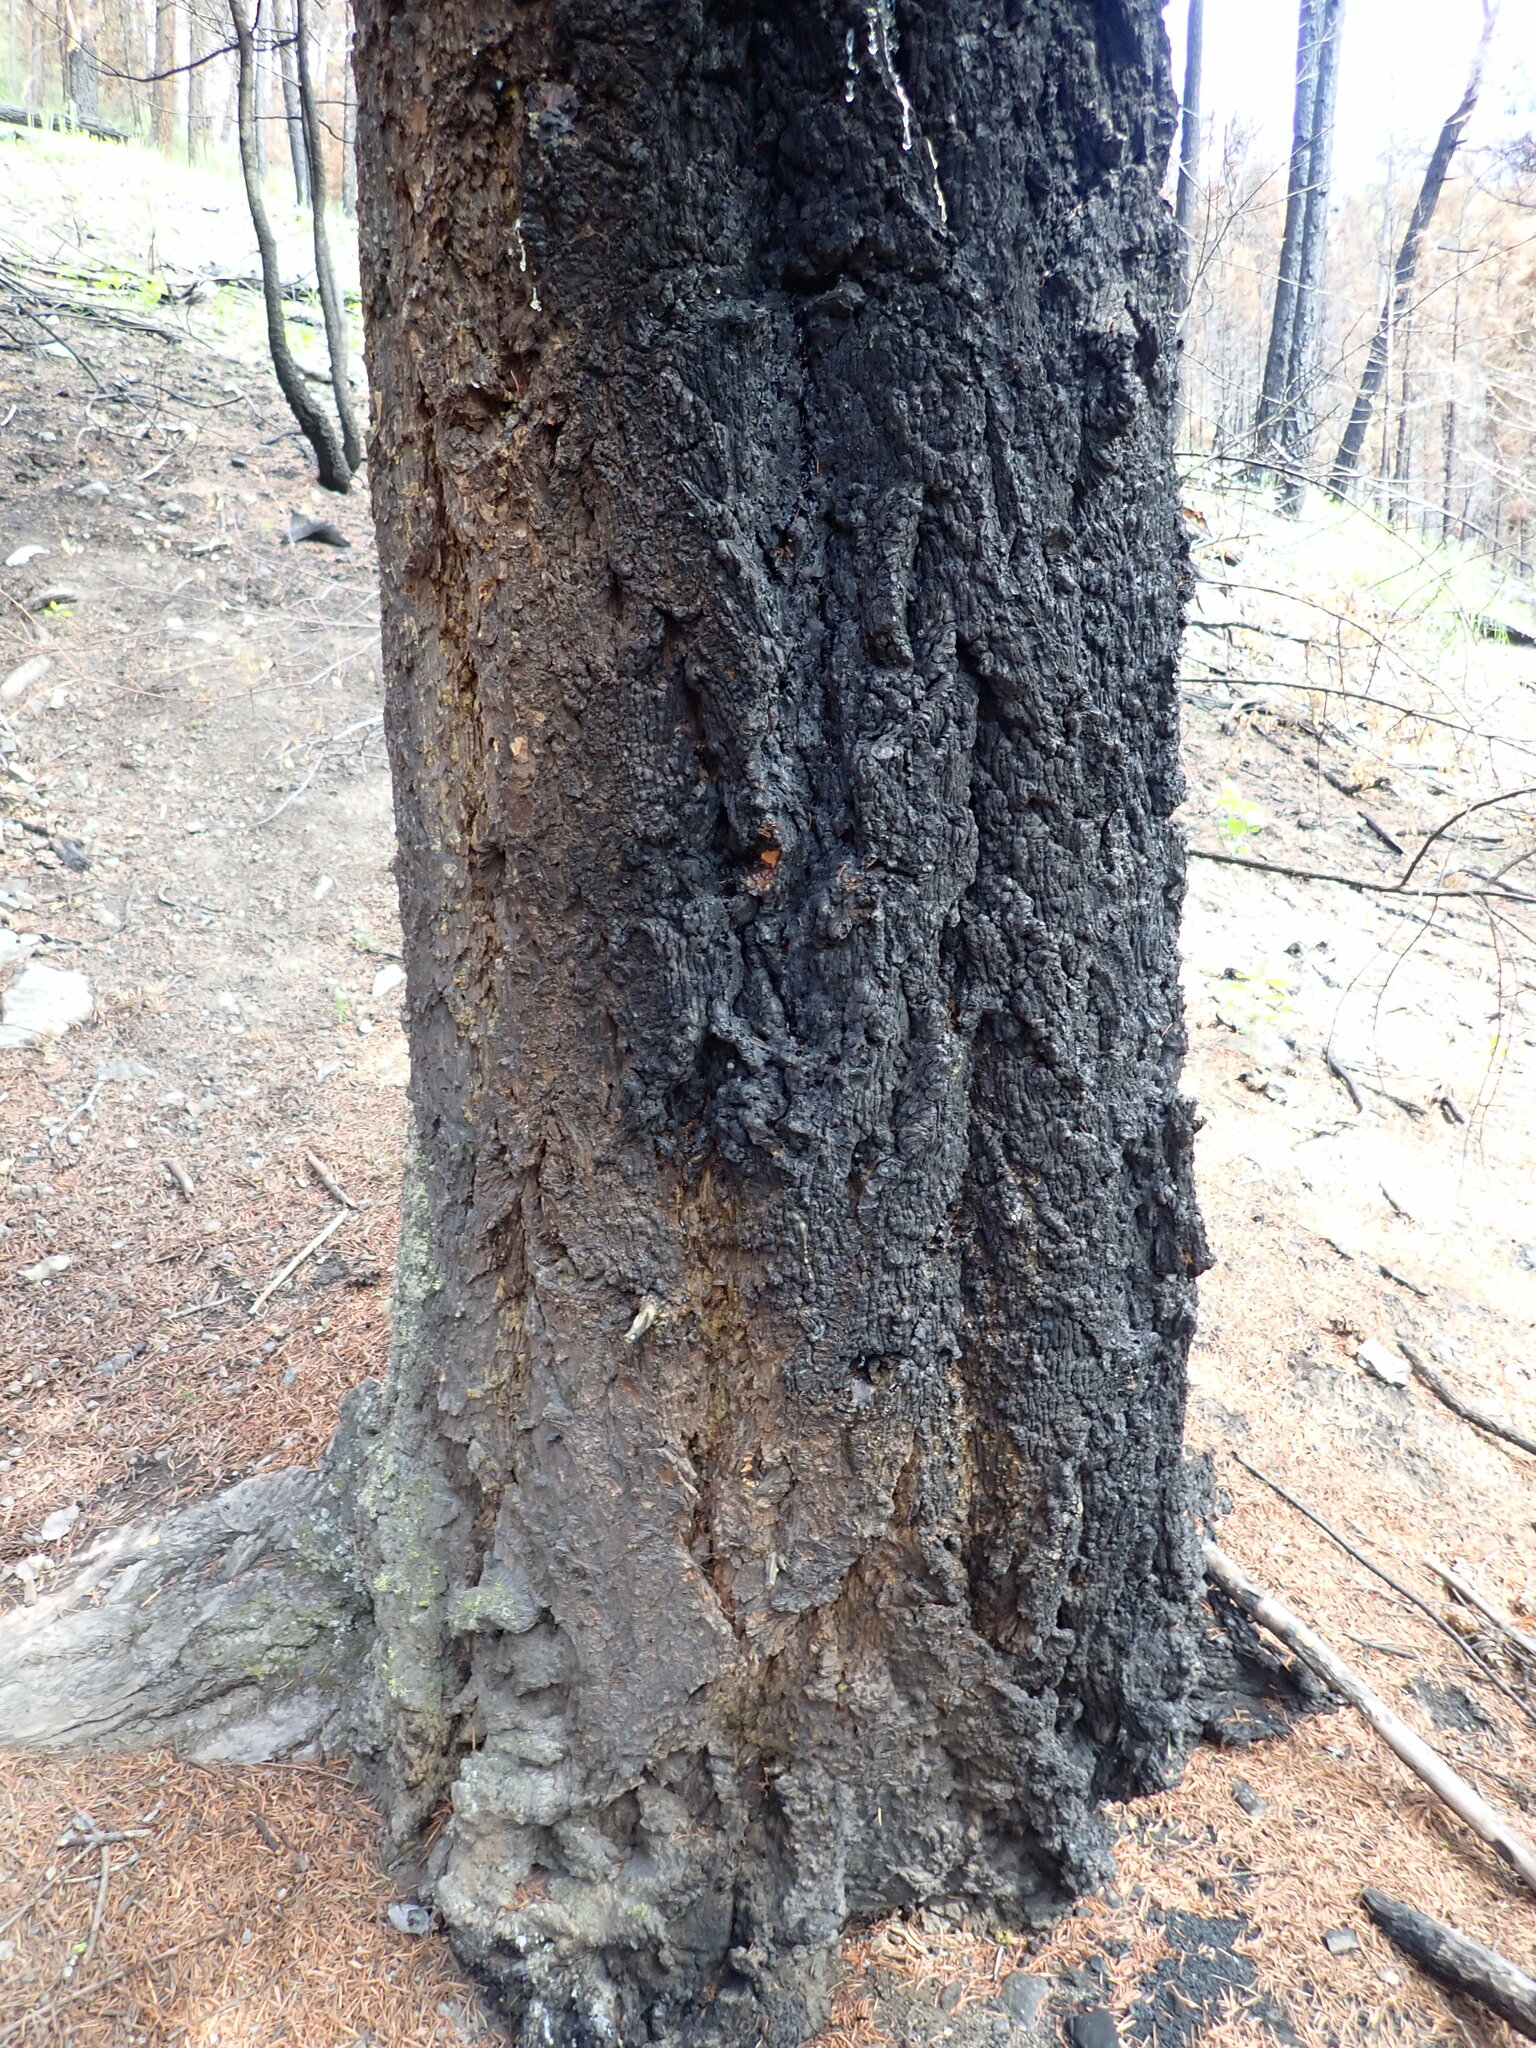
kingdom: Plantae
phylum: Tracheophyta
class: Pinopsida
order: Pinales
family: Pinaceae
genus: Pseudotsuga
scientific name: Pseudotsuga menziesii
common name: Douglas fir
